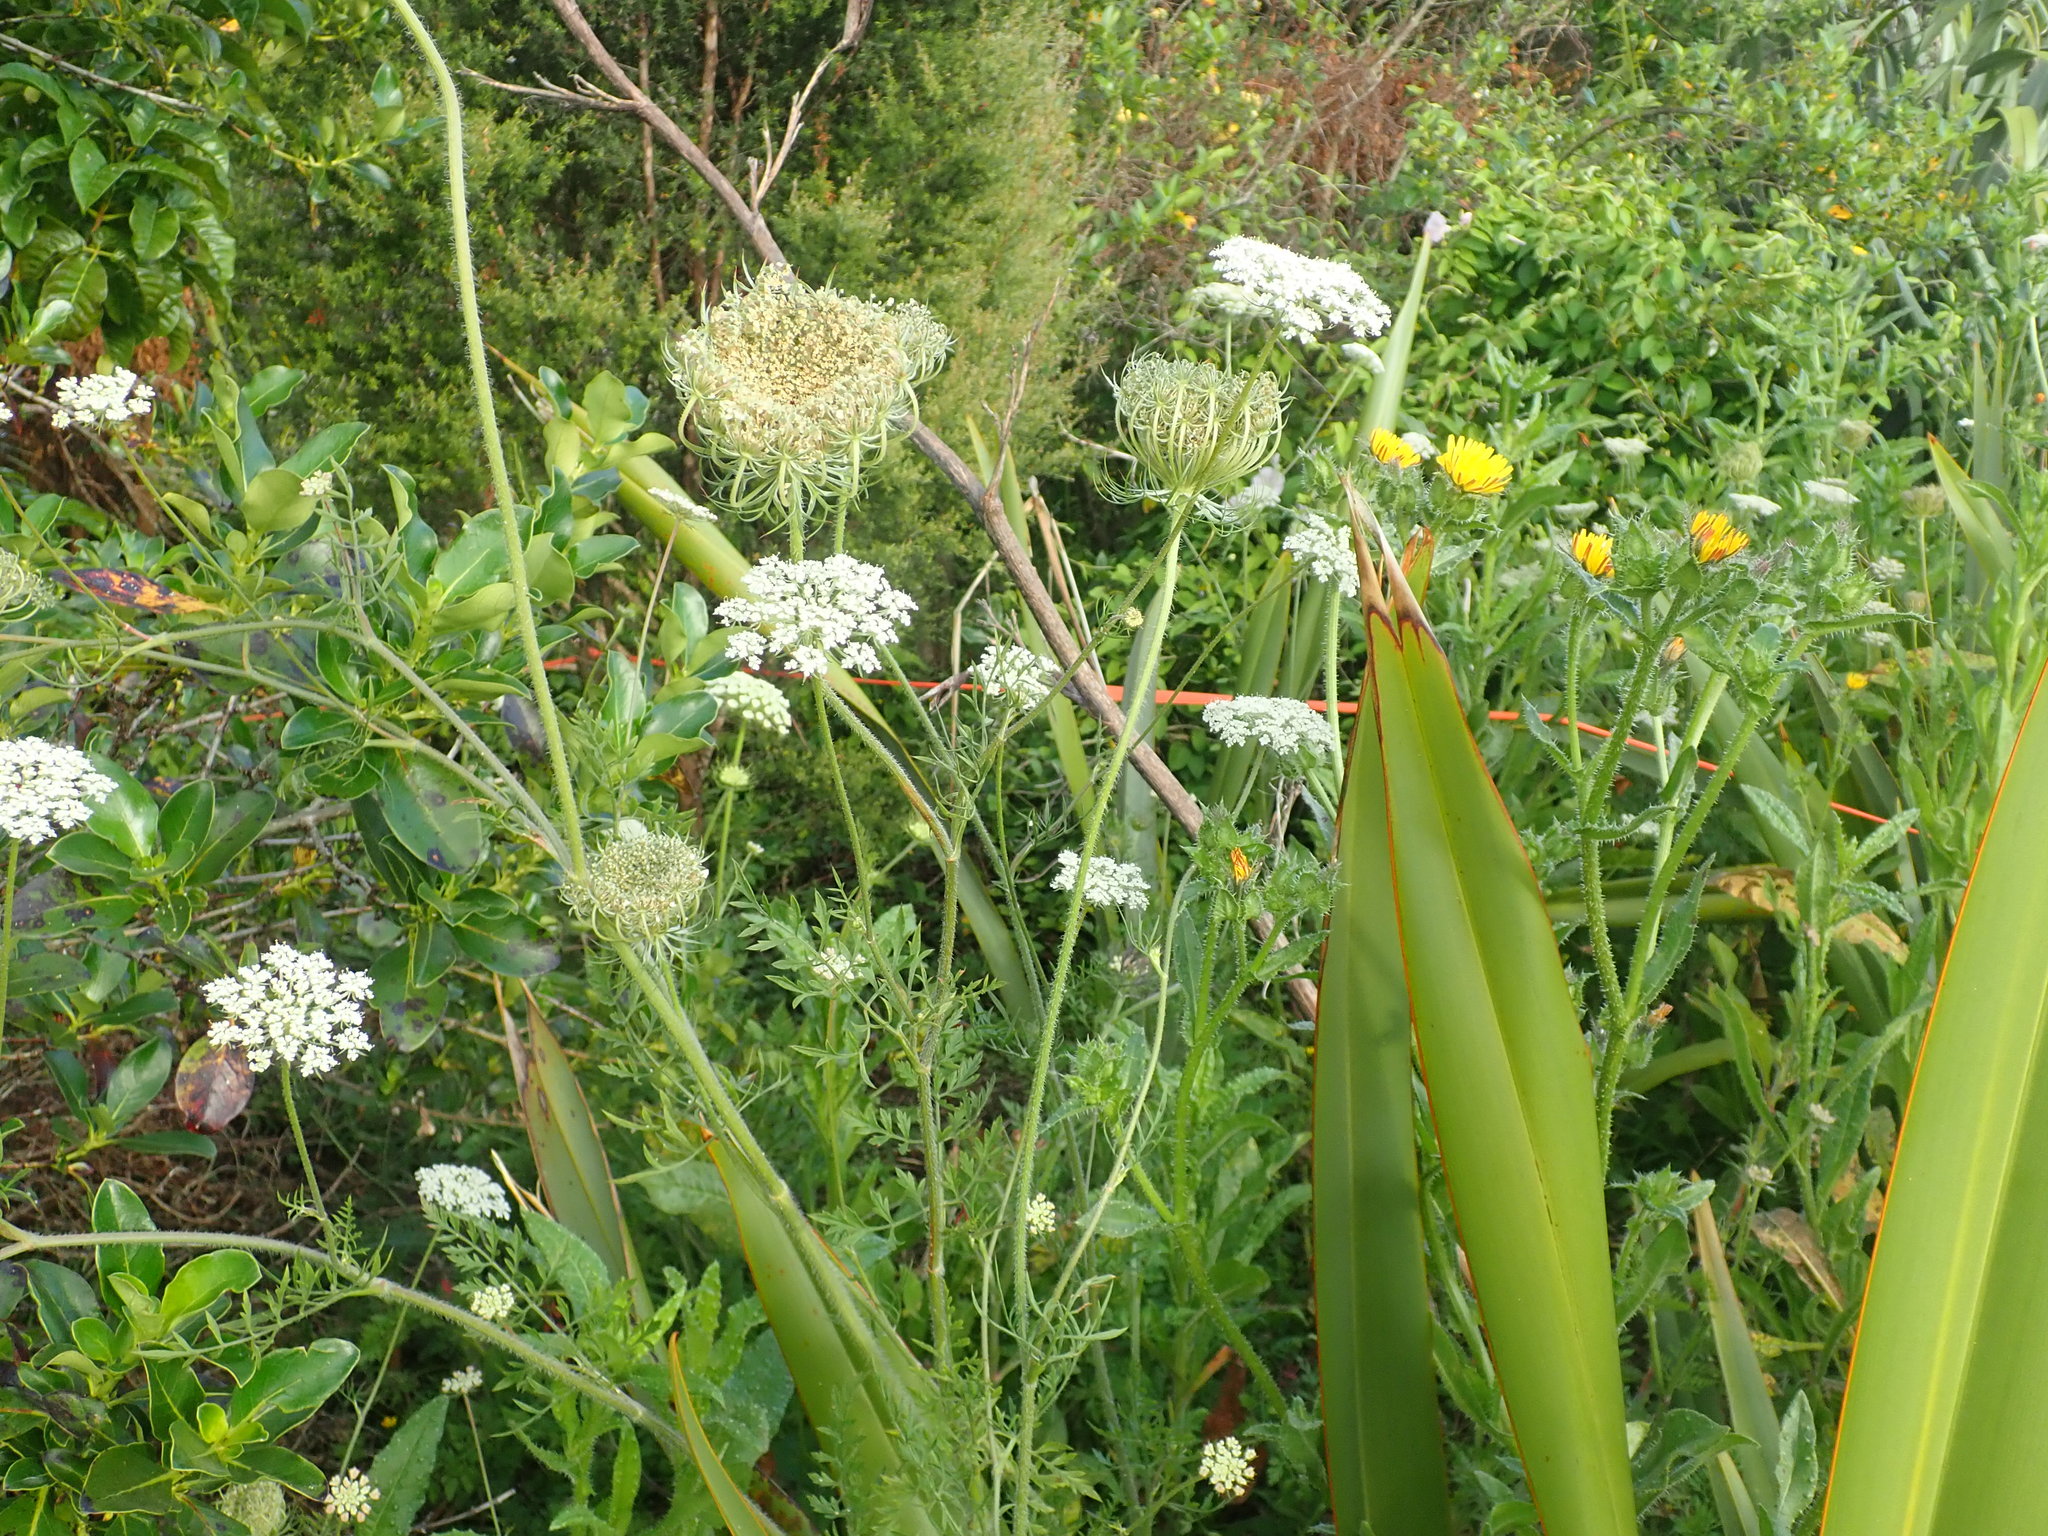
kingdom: Plantae
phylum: Tracheophyta
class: Magnoliopsida
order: Apiales
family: Apiaceae
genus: Daucus
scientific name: Daucus carota
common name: Wild carrot
